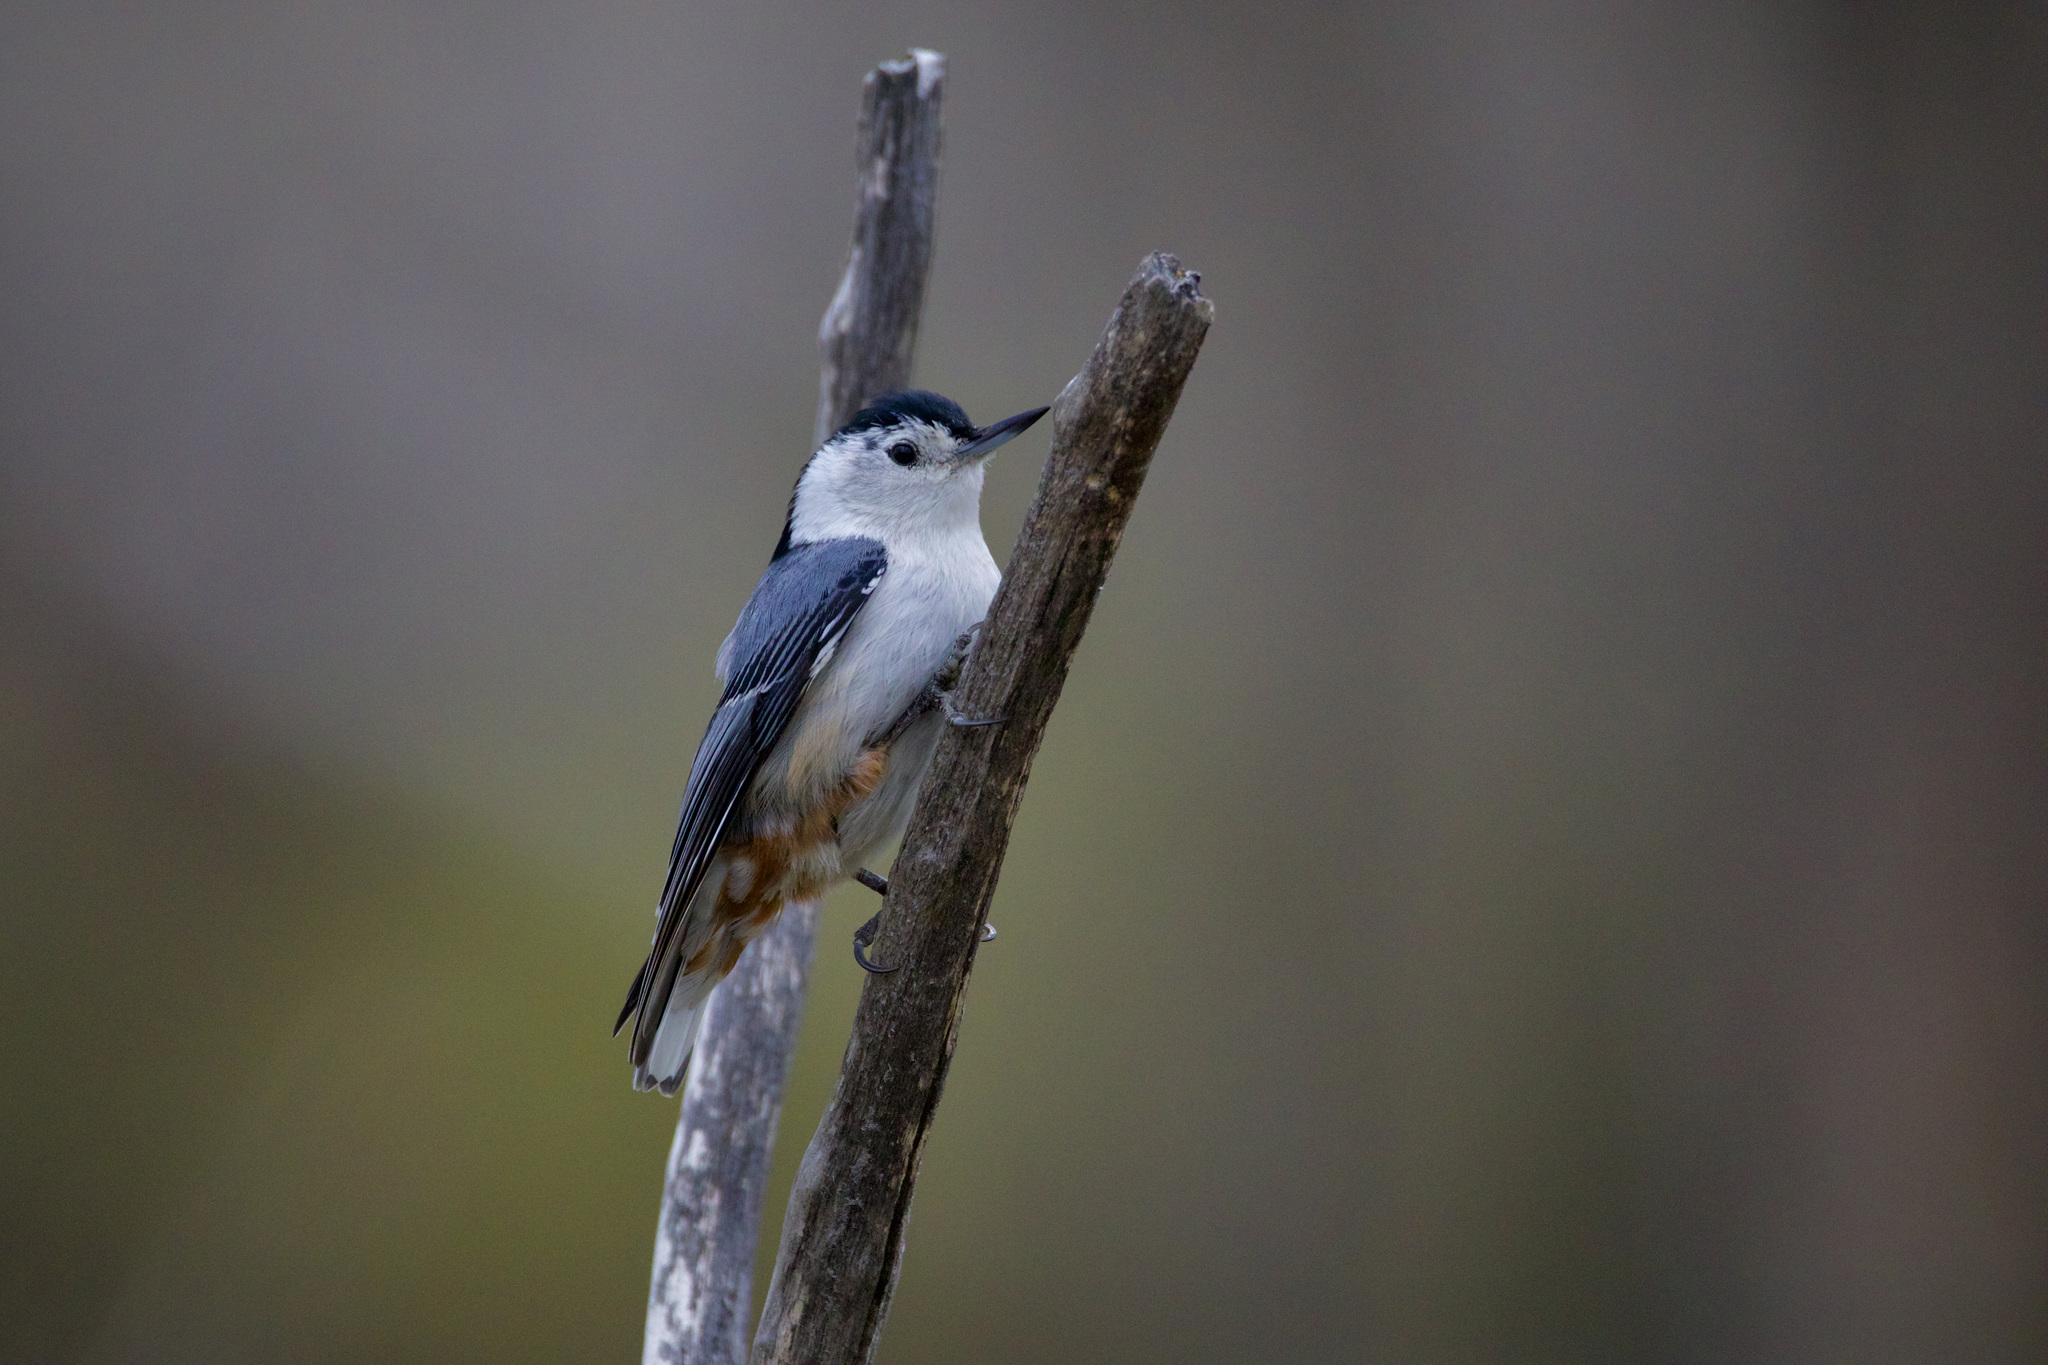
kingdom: Animalia
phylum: Chordata
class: Aves
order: Passeriformes
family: Sittidae
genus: Sitta
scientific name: Sitta carolinensis
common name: White-breasted nuthatch
